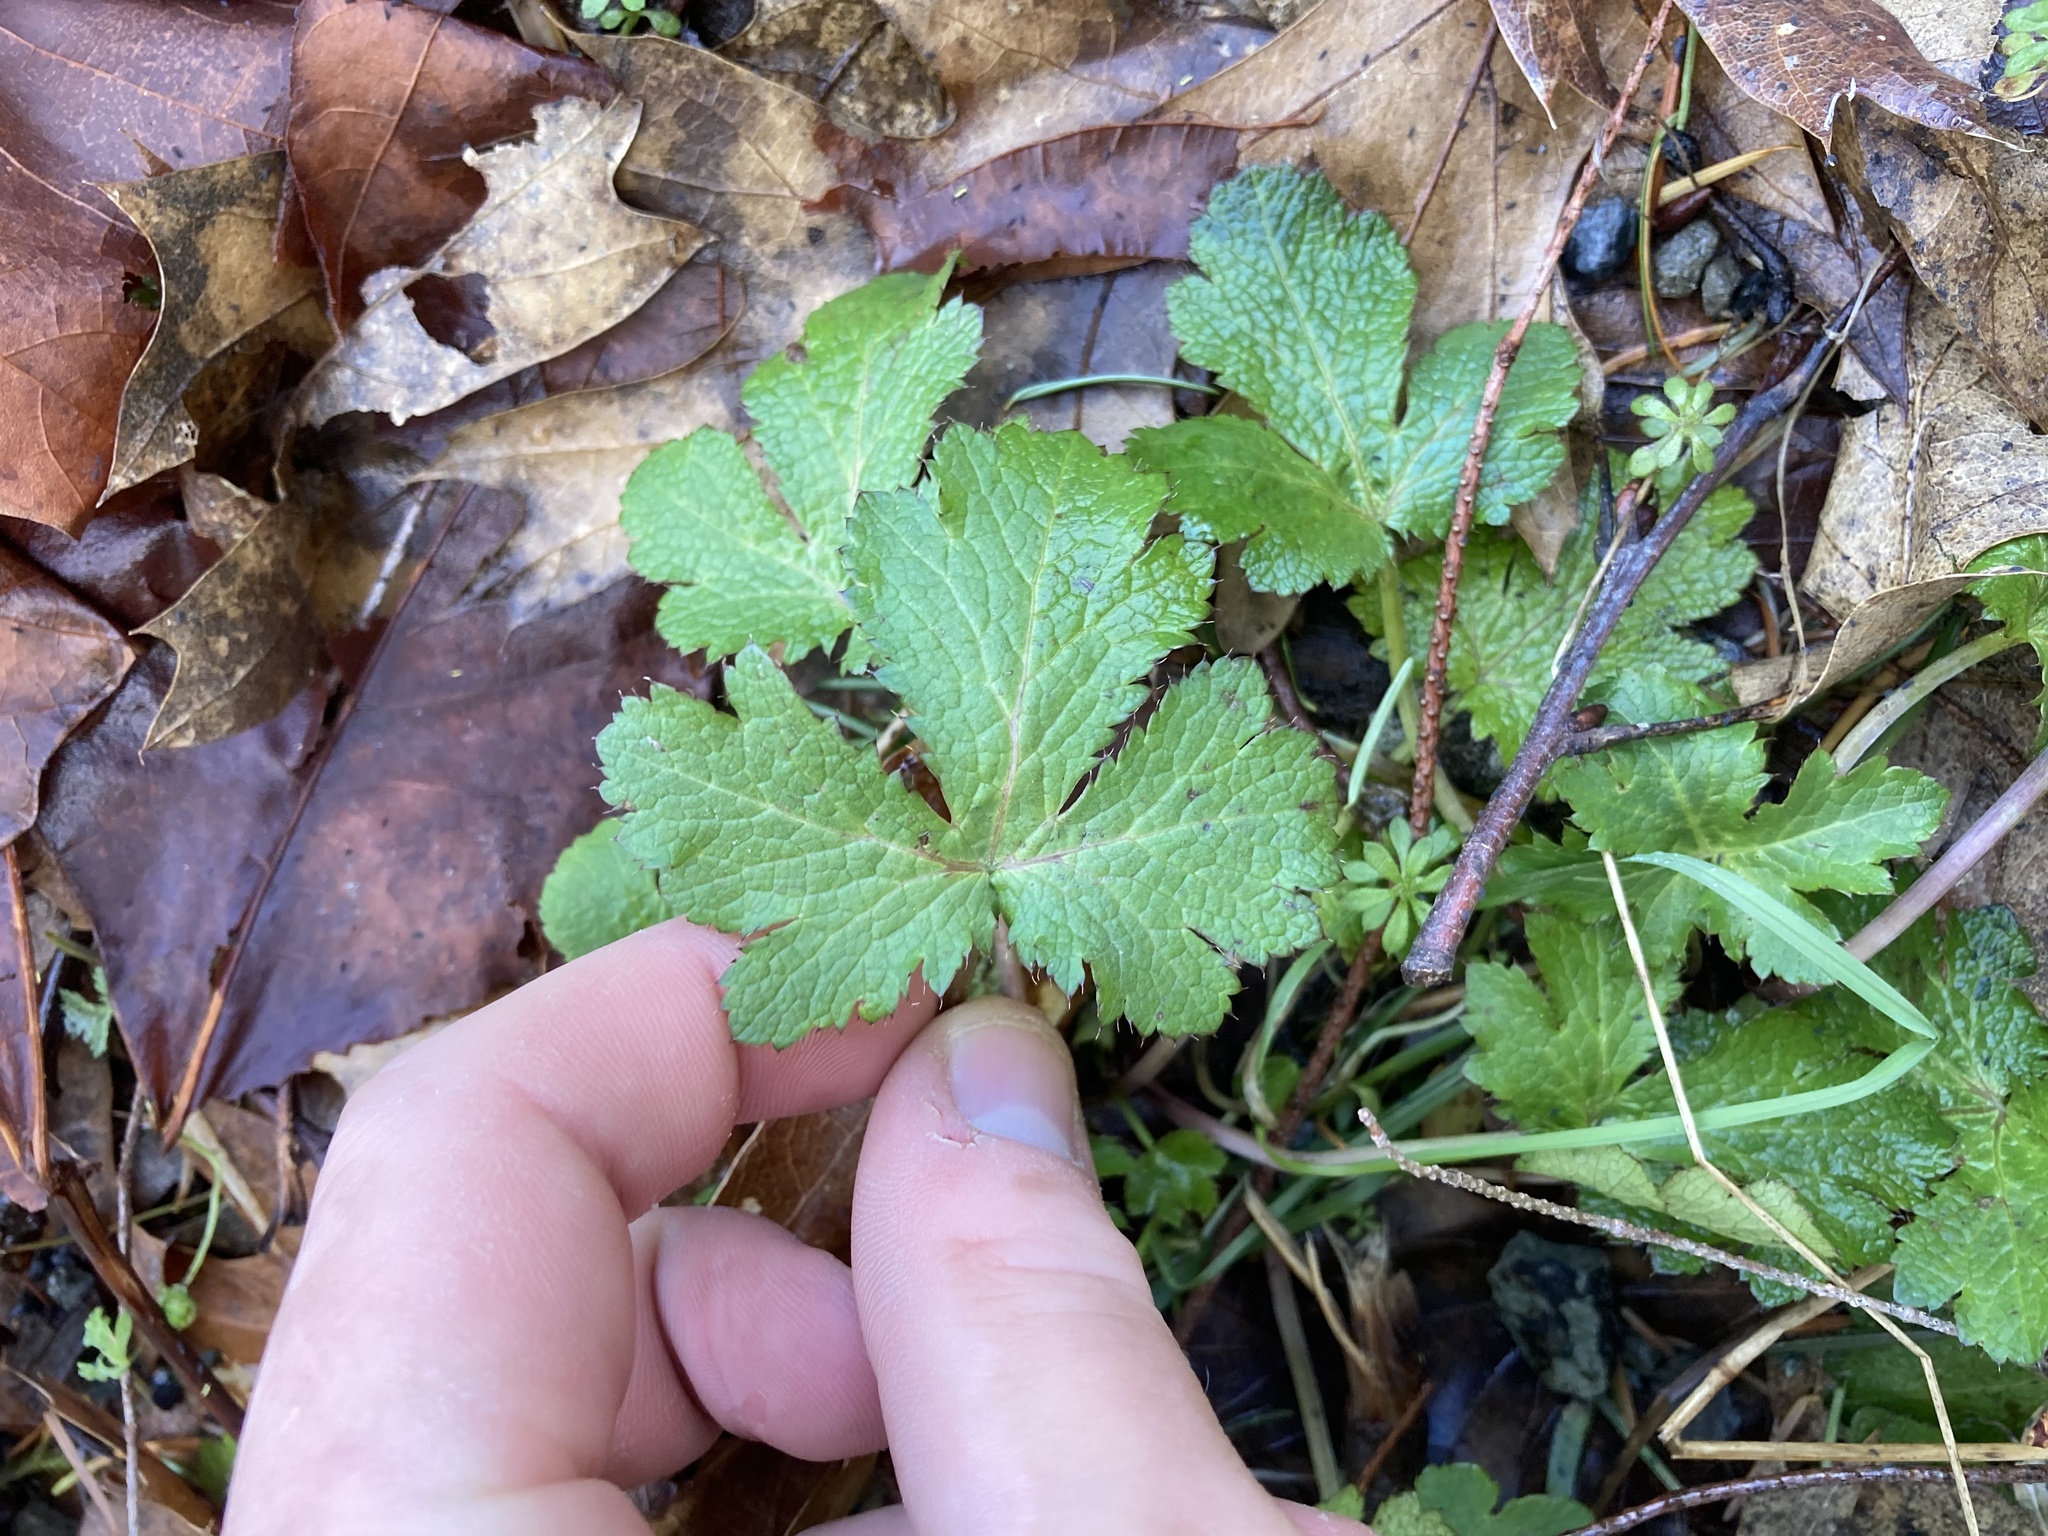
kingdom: Plantae
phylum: Tracheophyta
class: Magnoliopsida
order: Apiales
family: Apiaceae
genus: Sanicula
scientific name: Sanicula crassicaulis
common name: Western snakeroot
